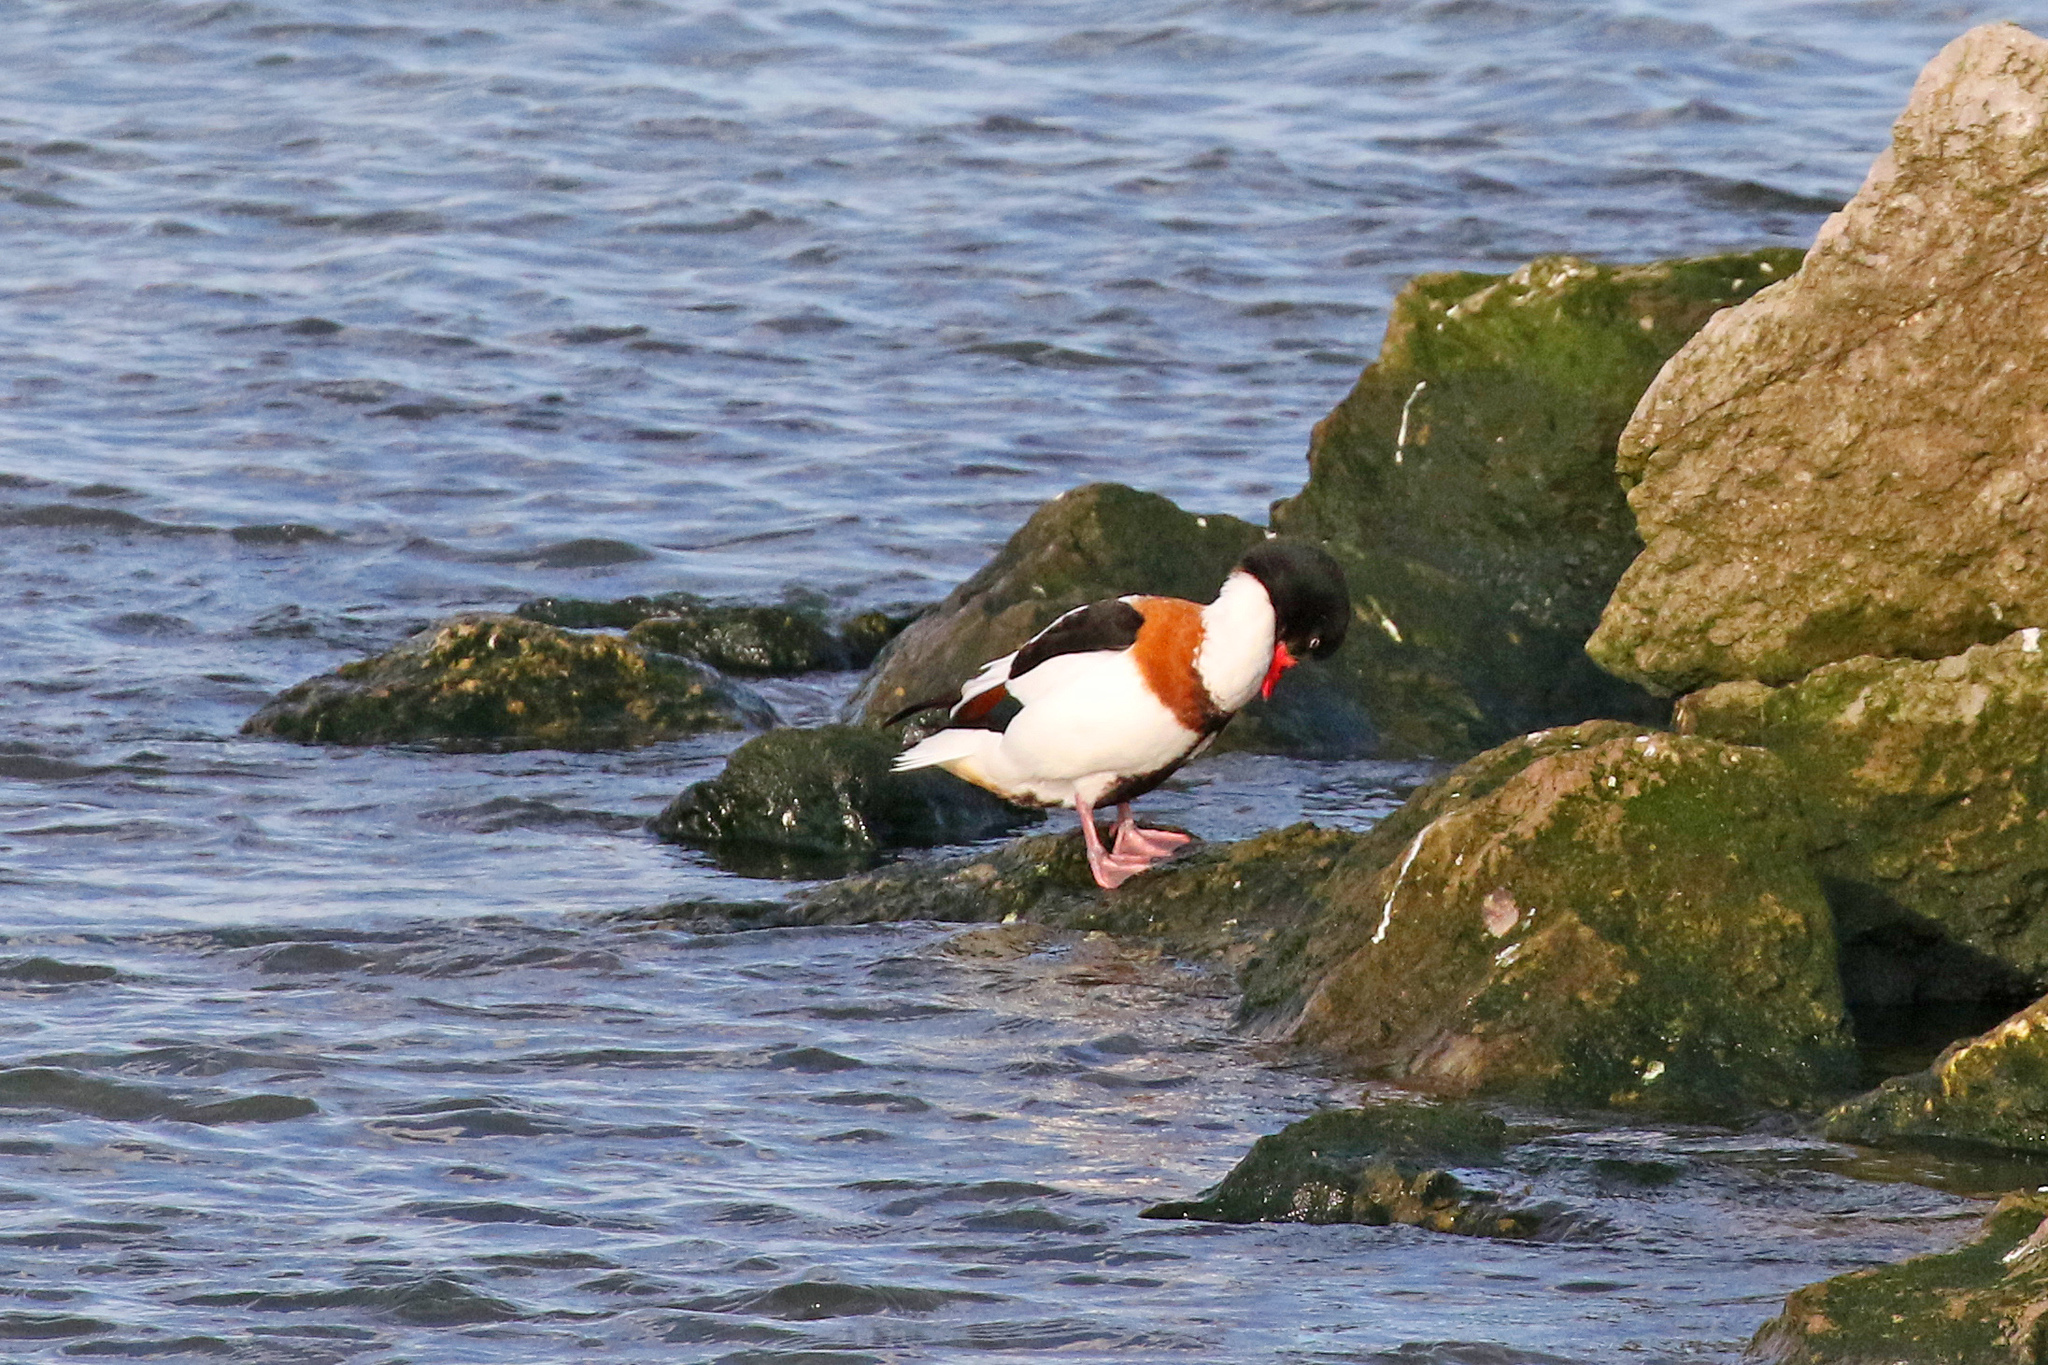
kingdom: Animalia
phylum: Chordata
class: Aves
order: Anseriformes
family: Anatidae
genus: Tadorna
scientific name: Tadorna tadorna
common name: Common shelduck
